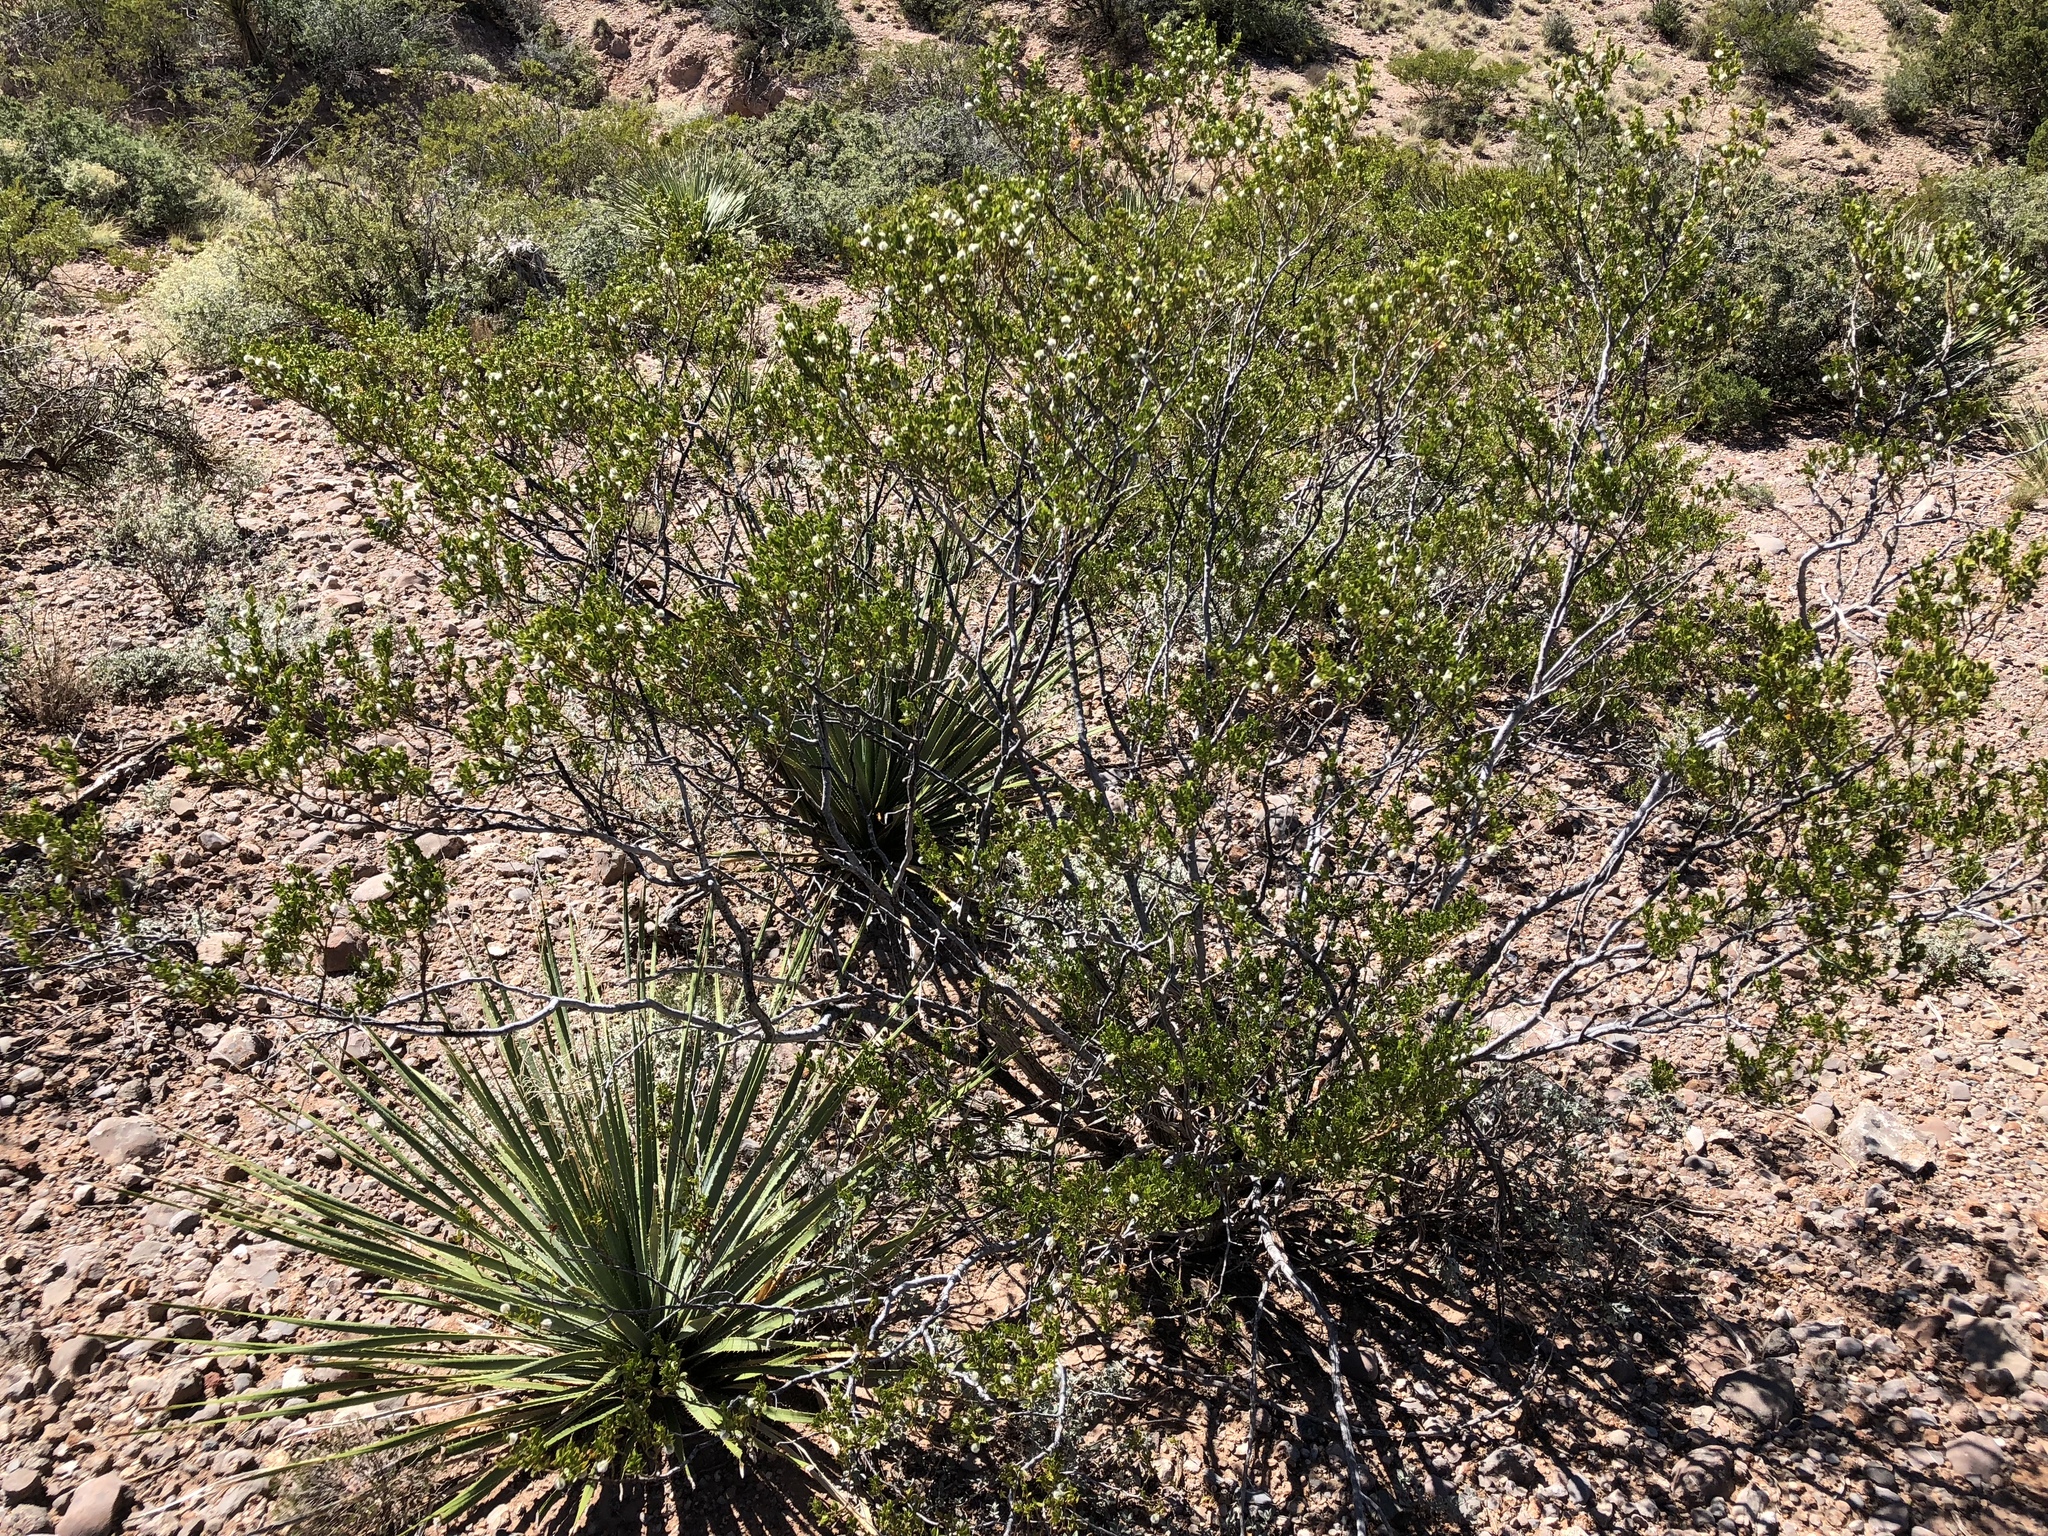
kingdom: Plantae
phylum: Tracheophyta
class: Magnoliopsida
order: Zygophyllales
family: Zygophyllaceae
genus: Larrea
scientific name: Larrea tridentata
